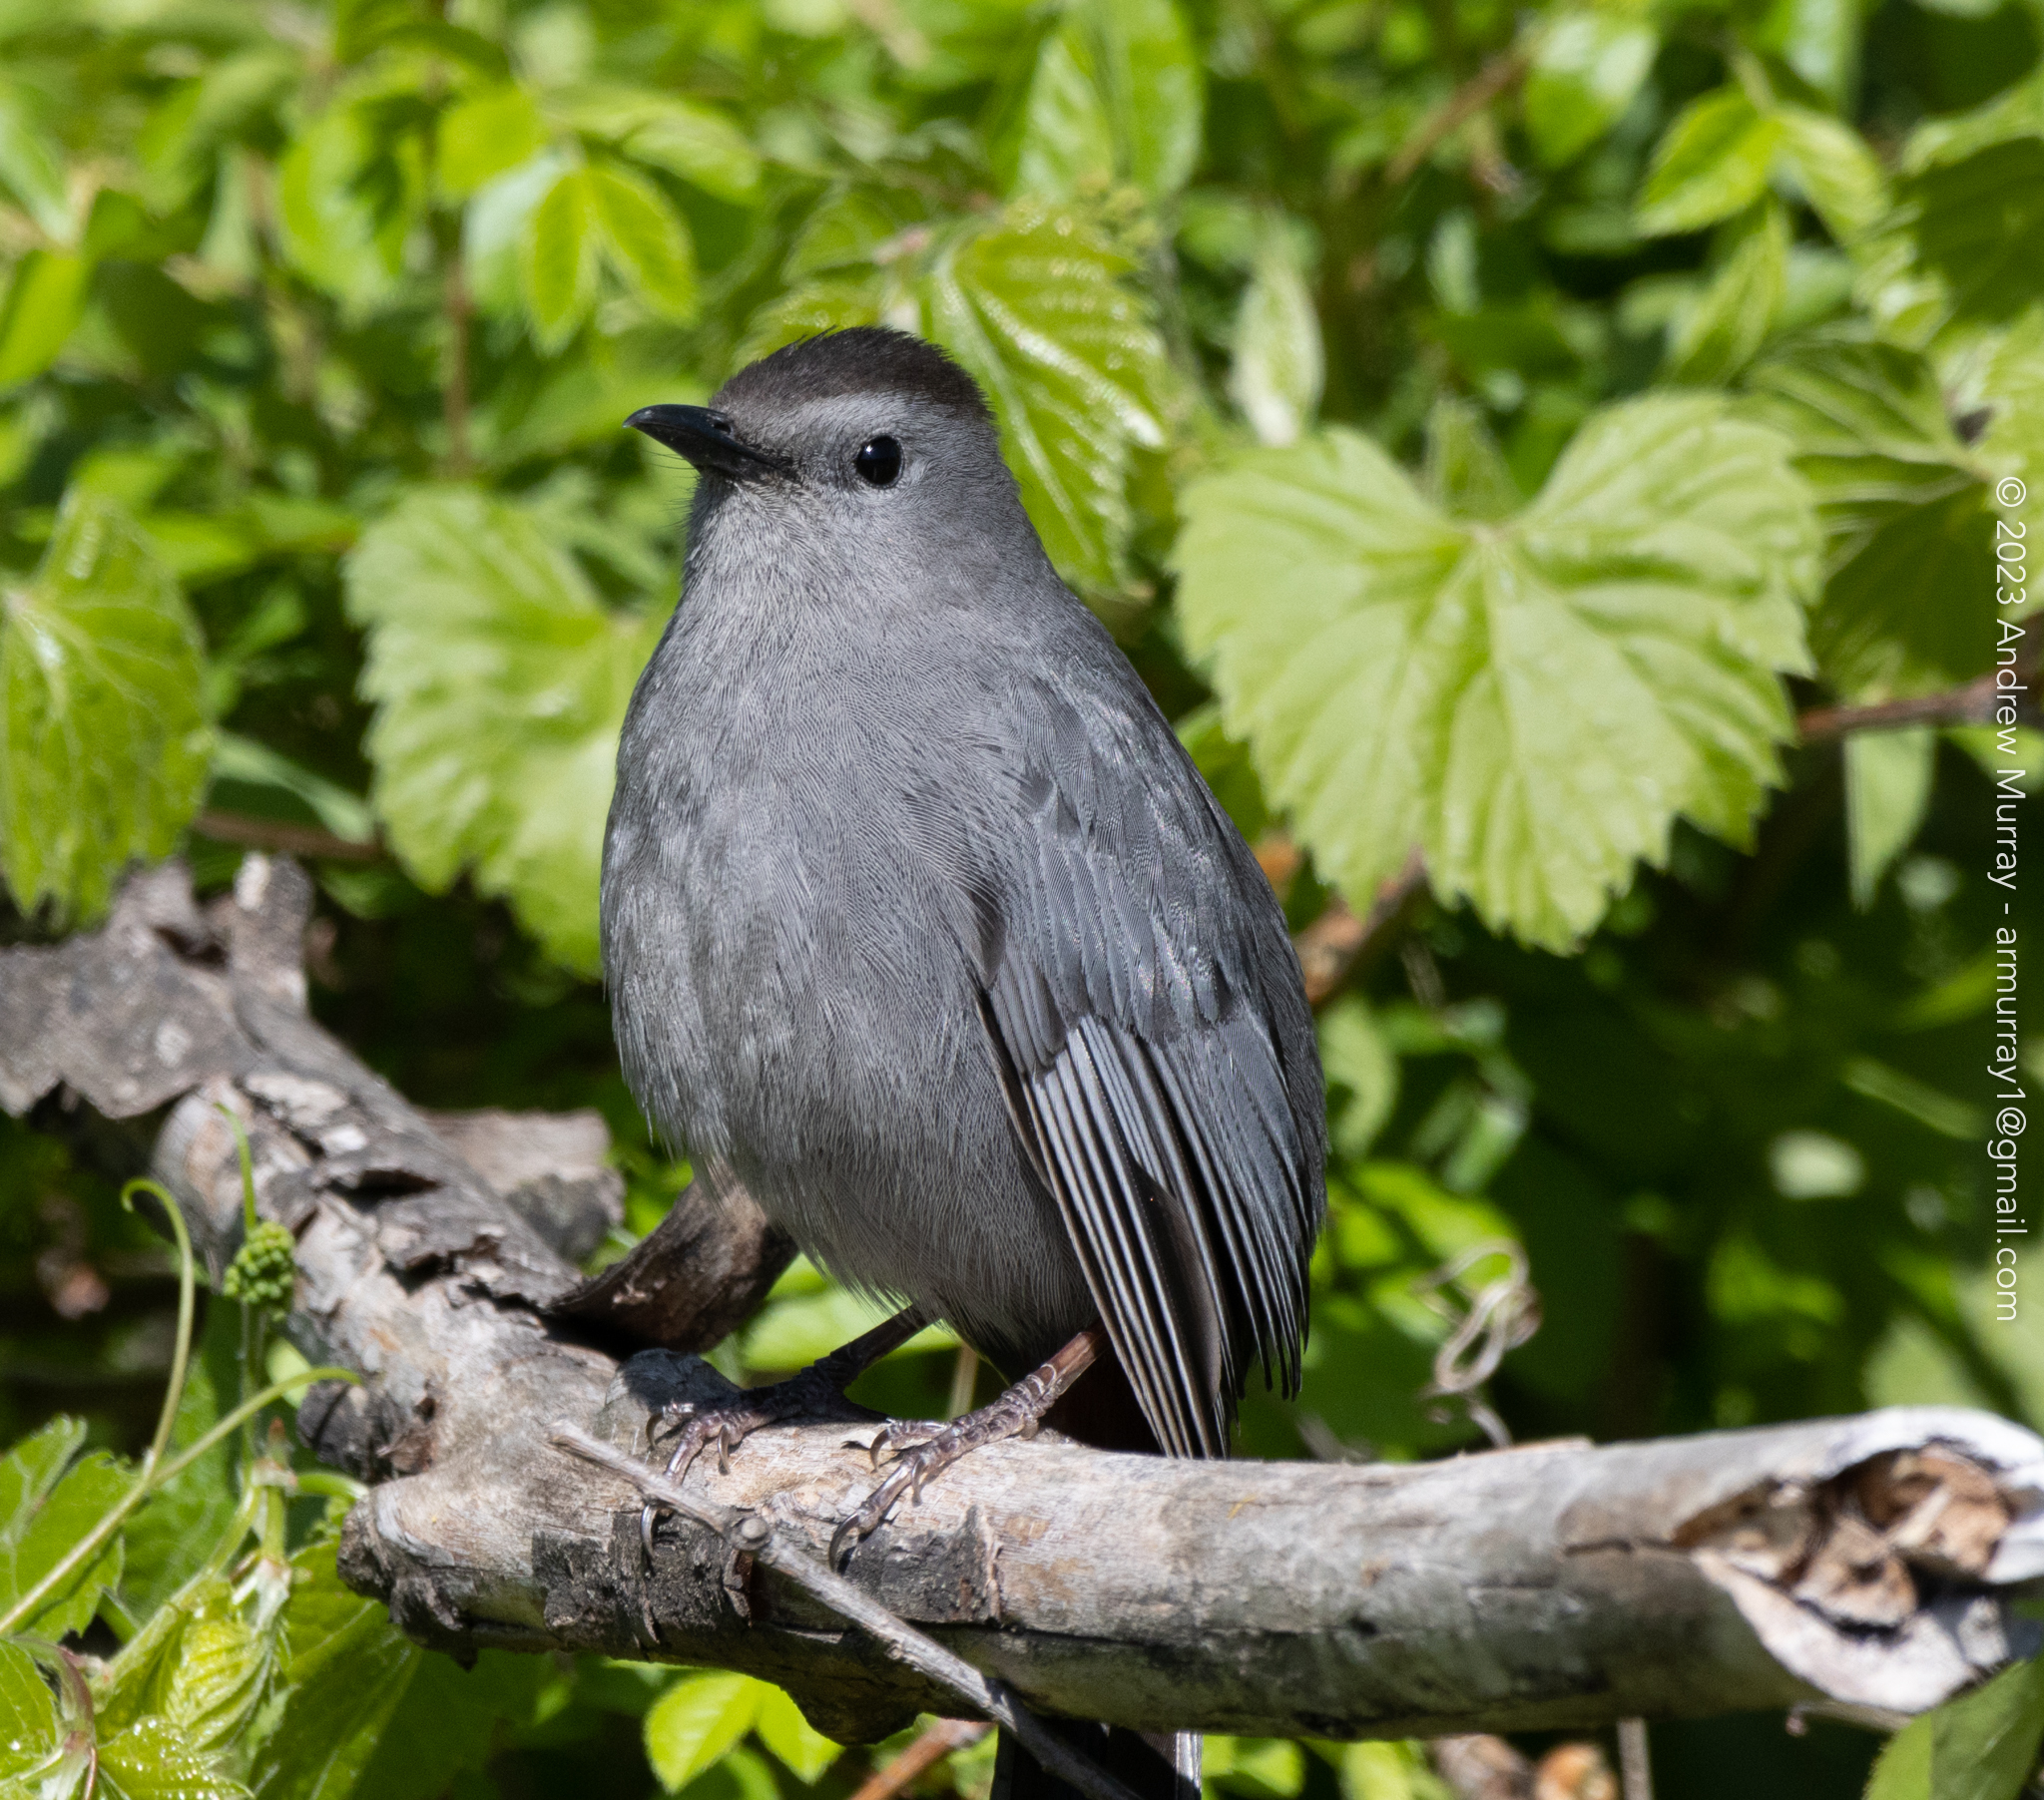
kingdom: Animalia
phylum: Chordata
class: Aves
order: Passeriformes
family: Mimidae
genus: Dumetella
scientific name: Dumetella carolinensis
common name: Gray catbird
